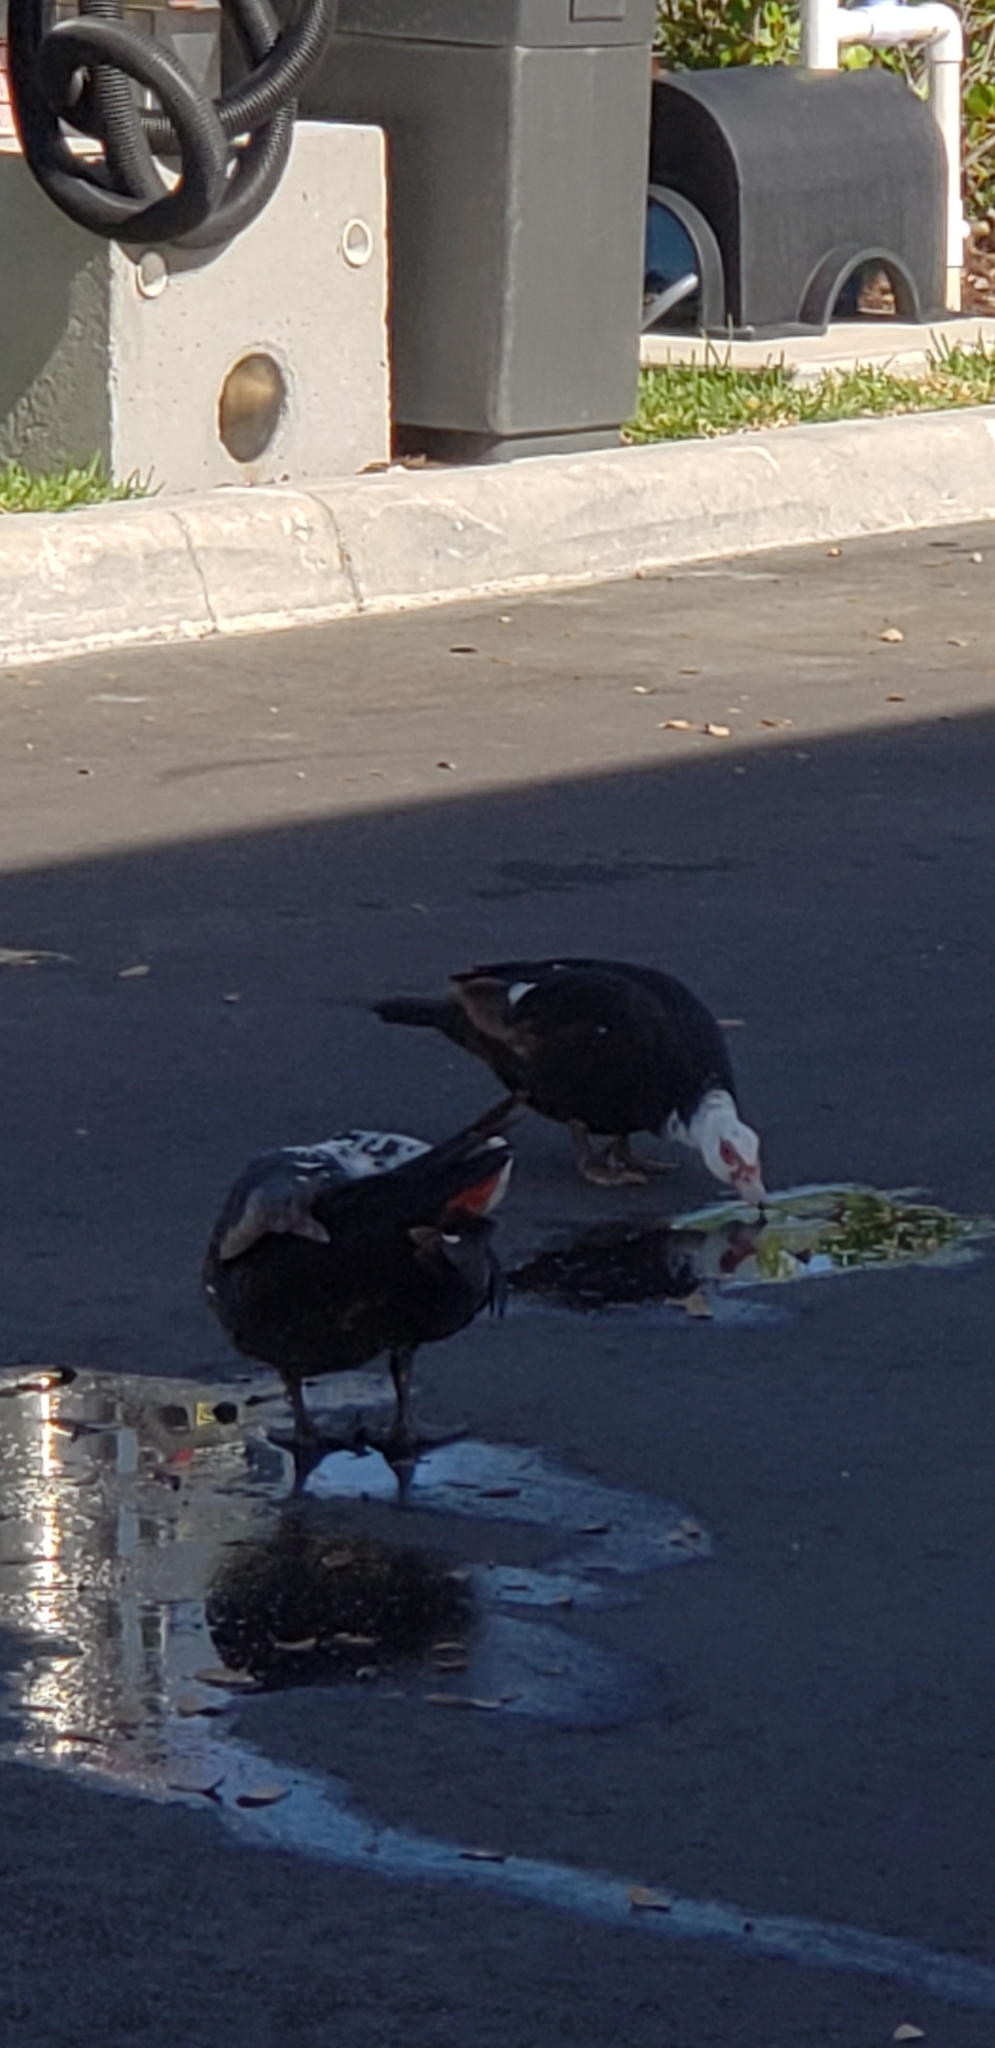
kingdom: Animalia
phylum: Chordata
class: Aves
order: Anseriformes
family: Anatidae
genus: Cairina
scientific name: Cairina moschata
